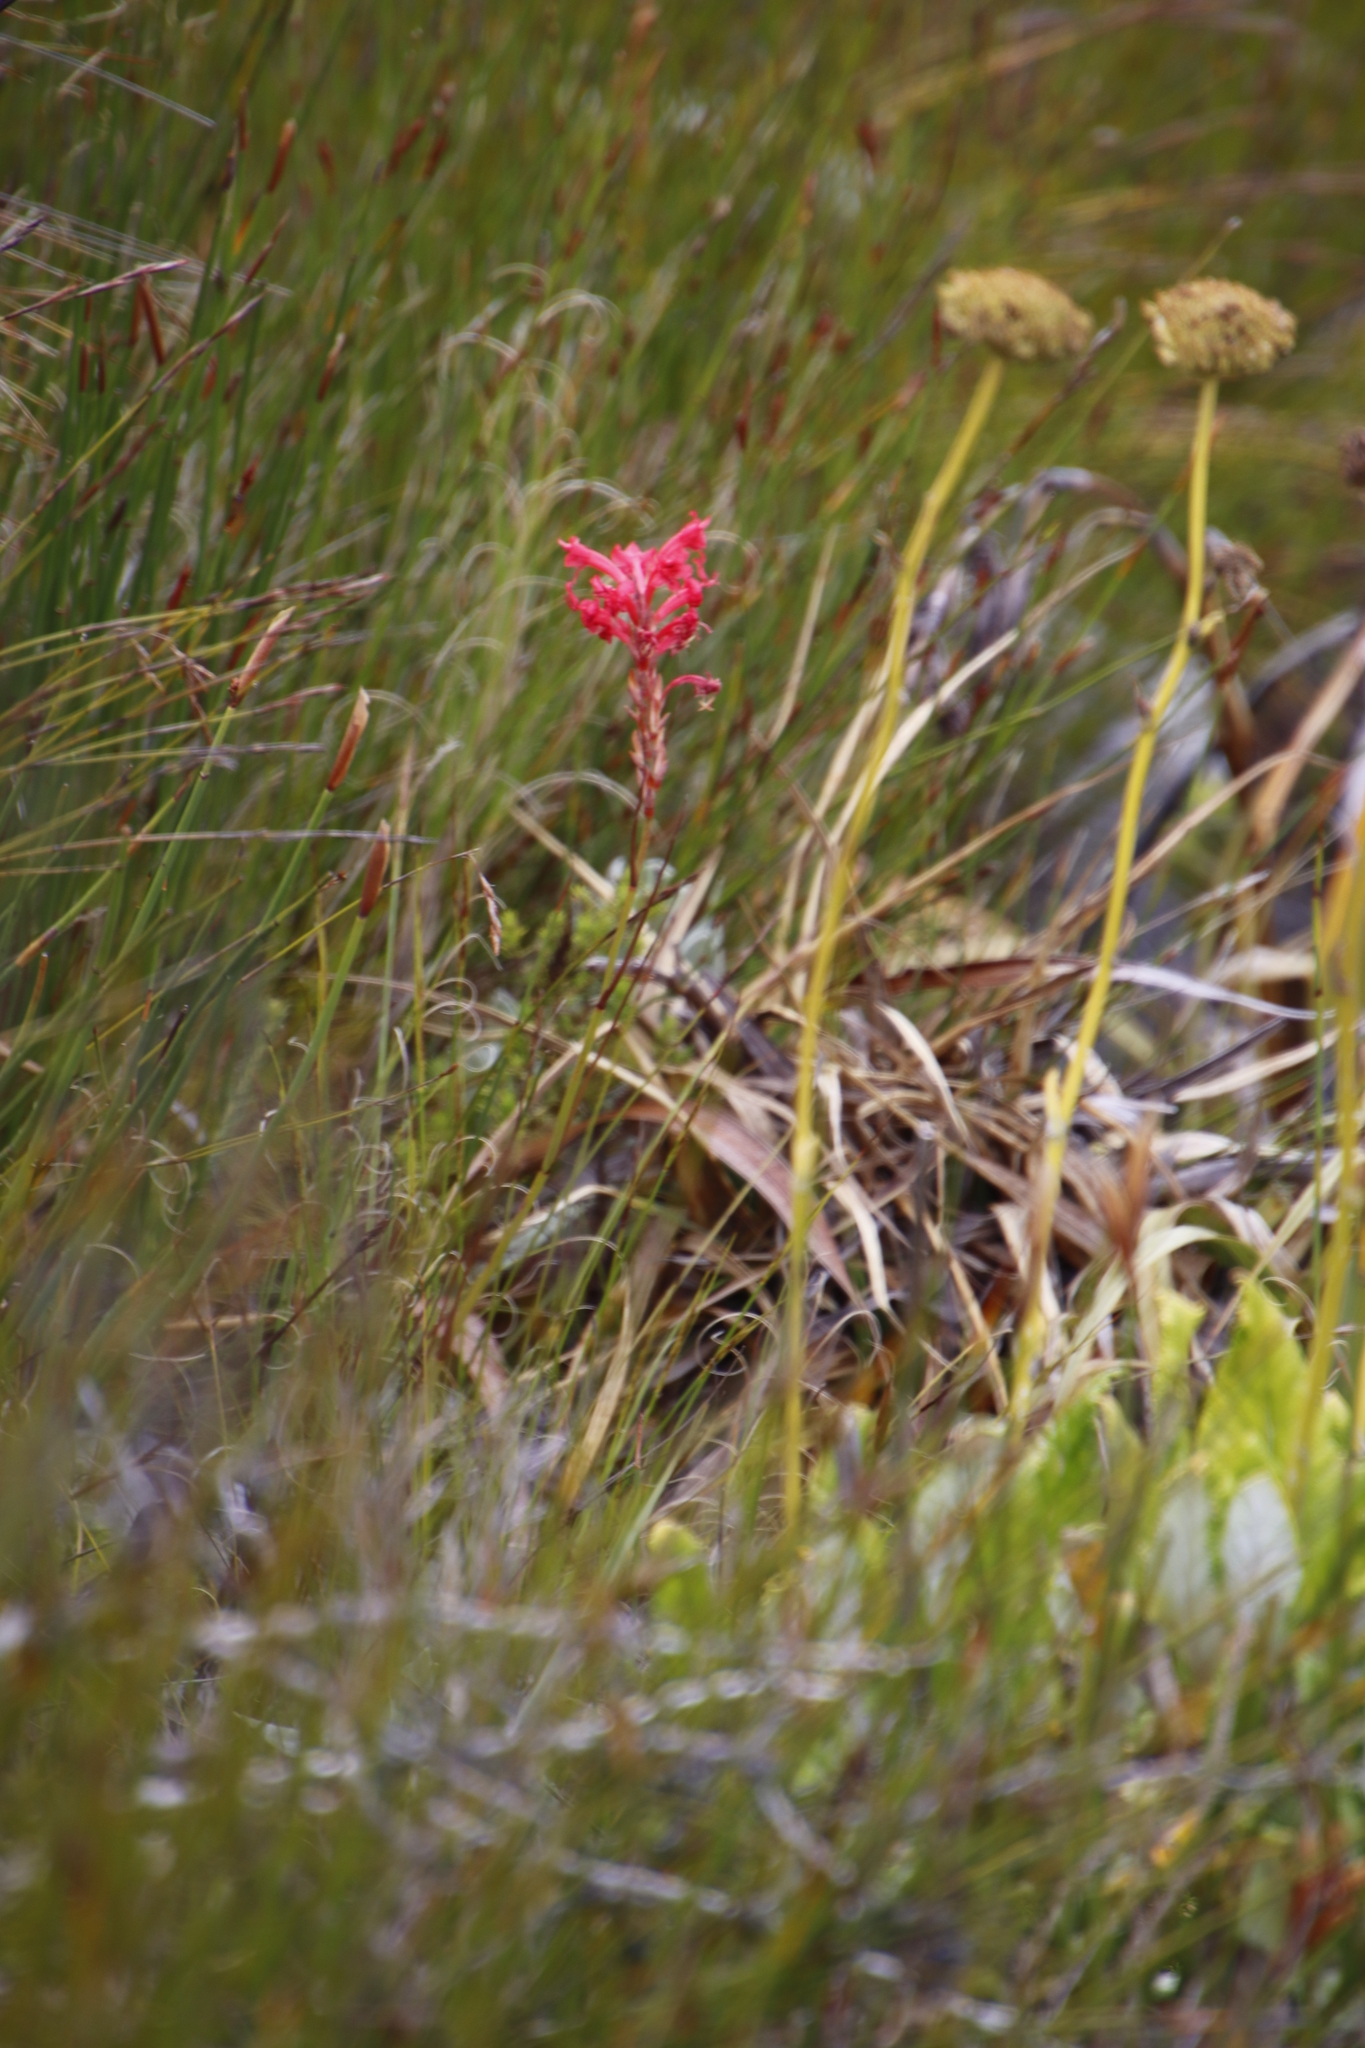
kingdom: Plantae
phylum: Tracheophyta
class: Liliopsida
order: Asparagales
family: Iridaceae
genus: Tritoniopsis
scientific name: Tritoniopsis triticea
